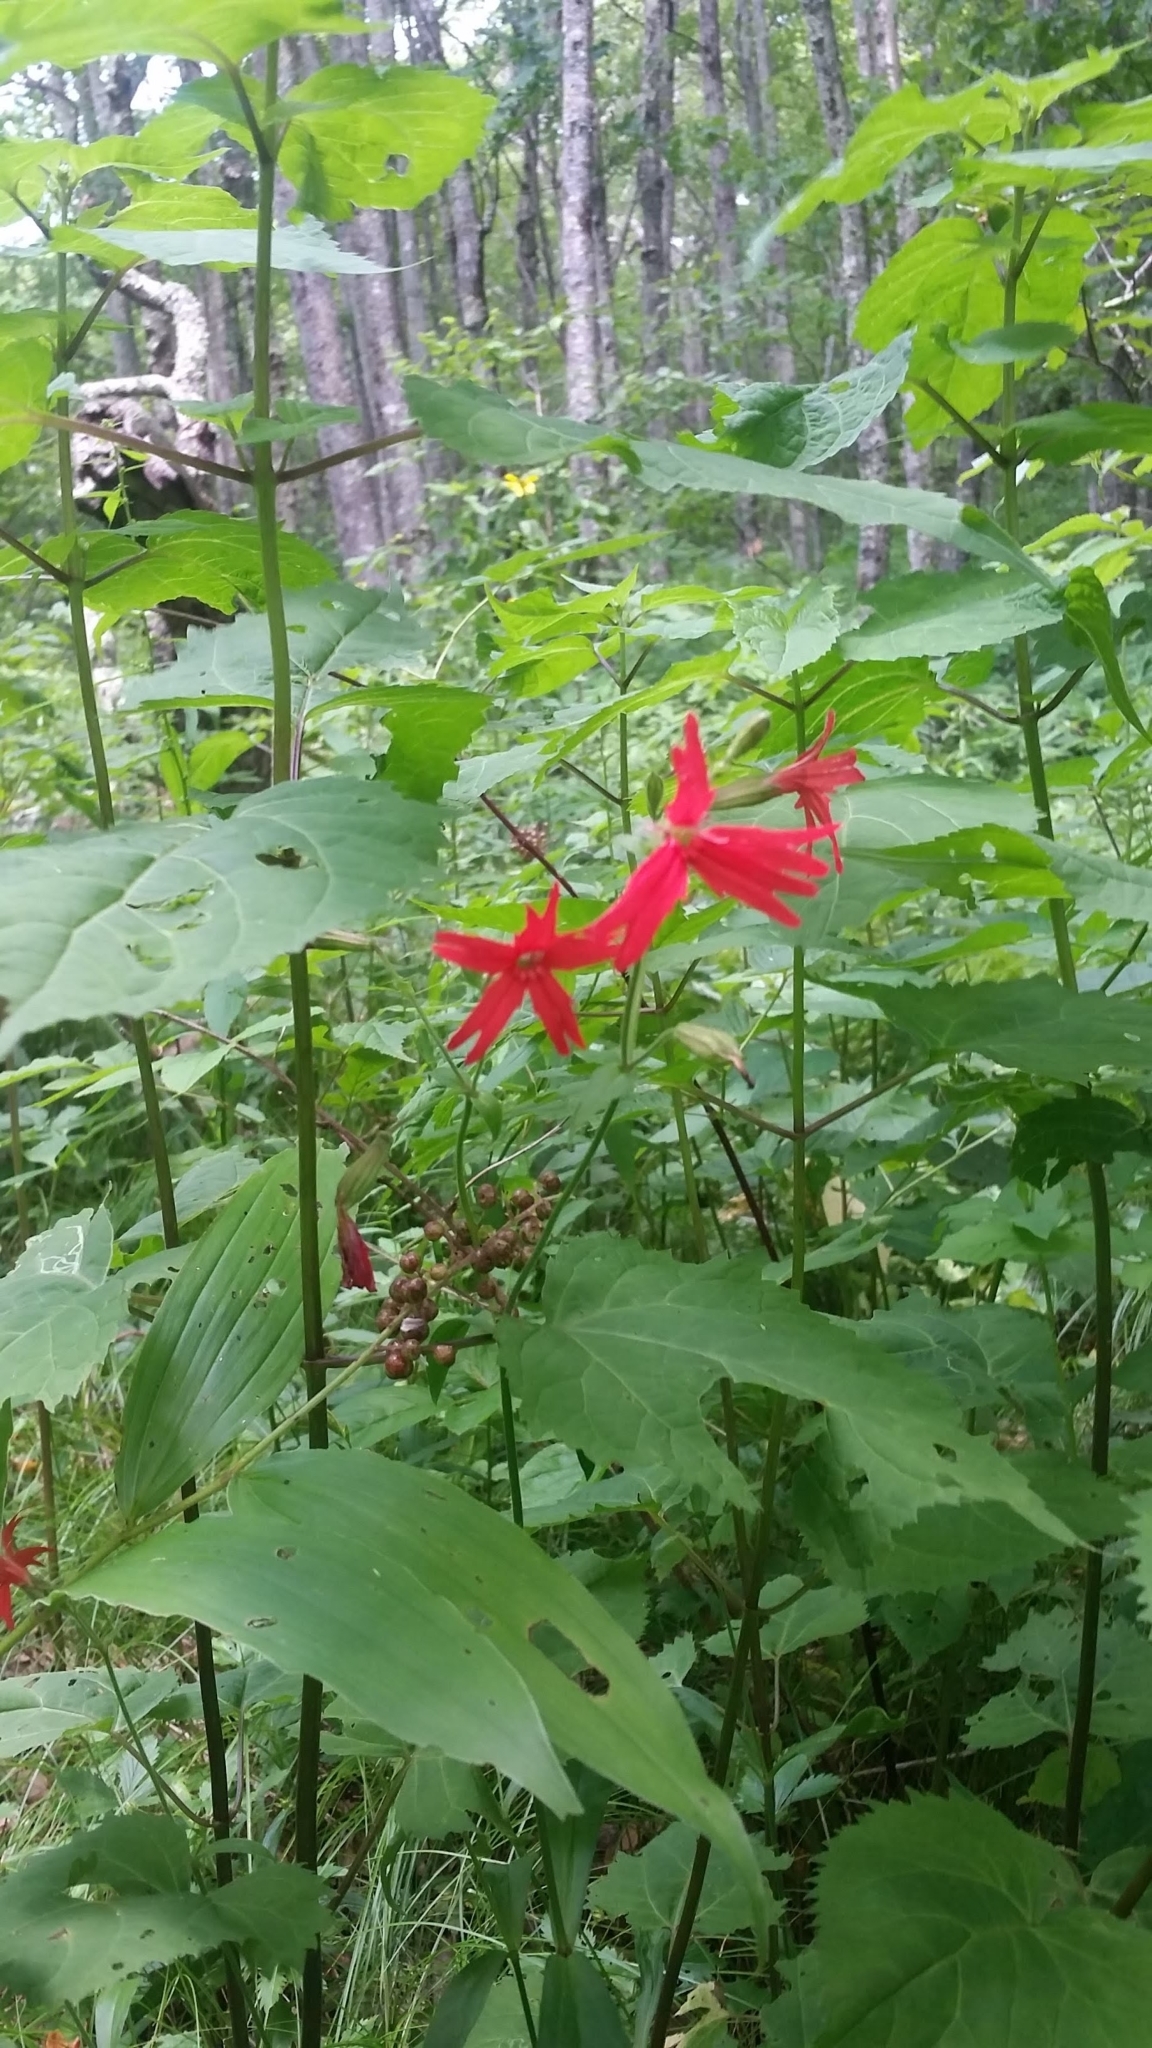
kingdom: Plantae
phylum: Tracheophyta
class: Magnoliopsida
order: Caryophyllales
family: Caryophyllaceae
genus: Silene
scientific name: Silene virginica
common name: Fire-pink
